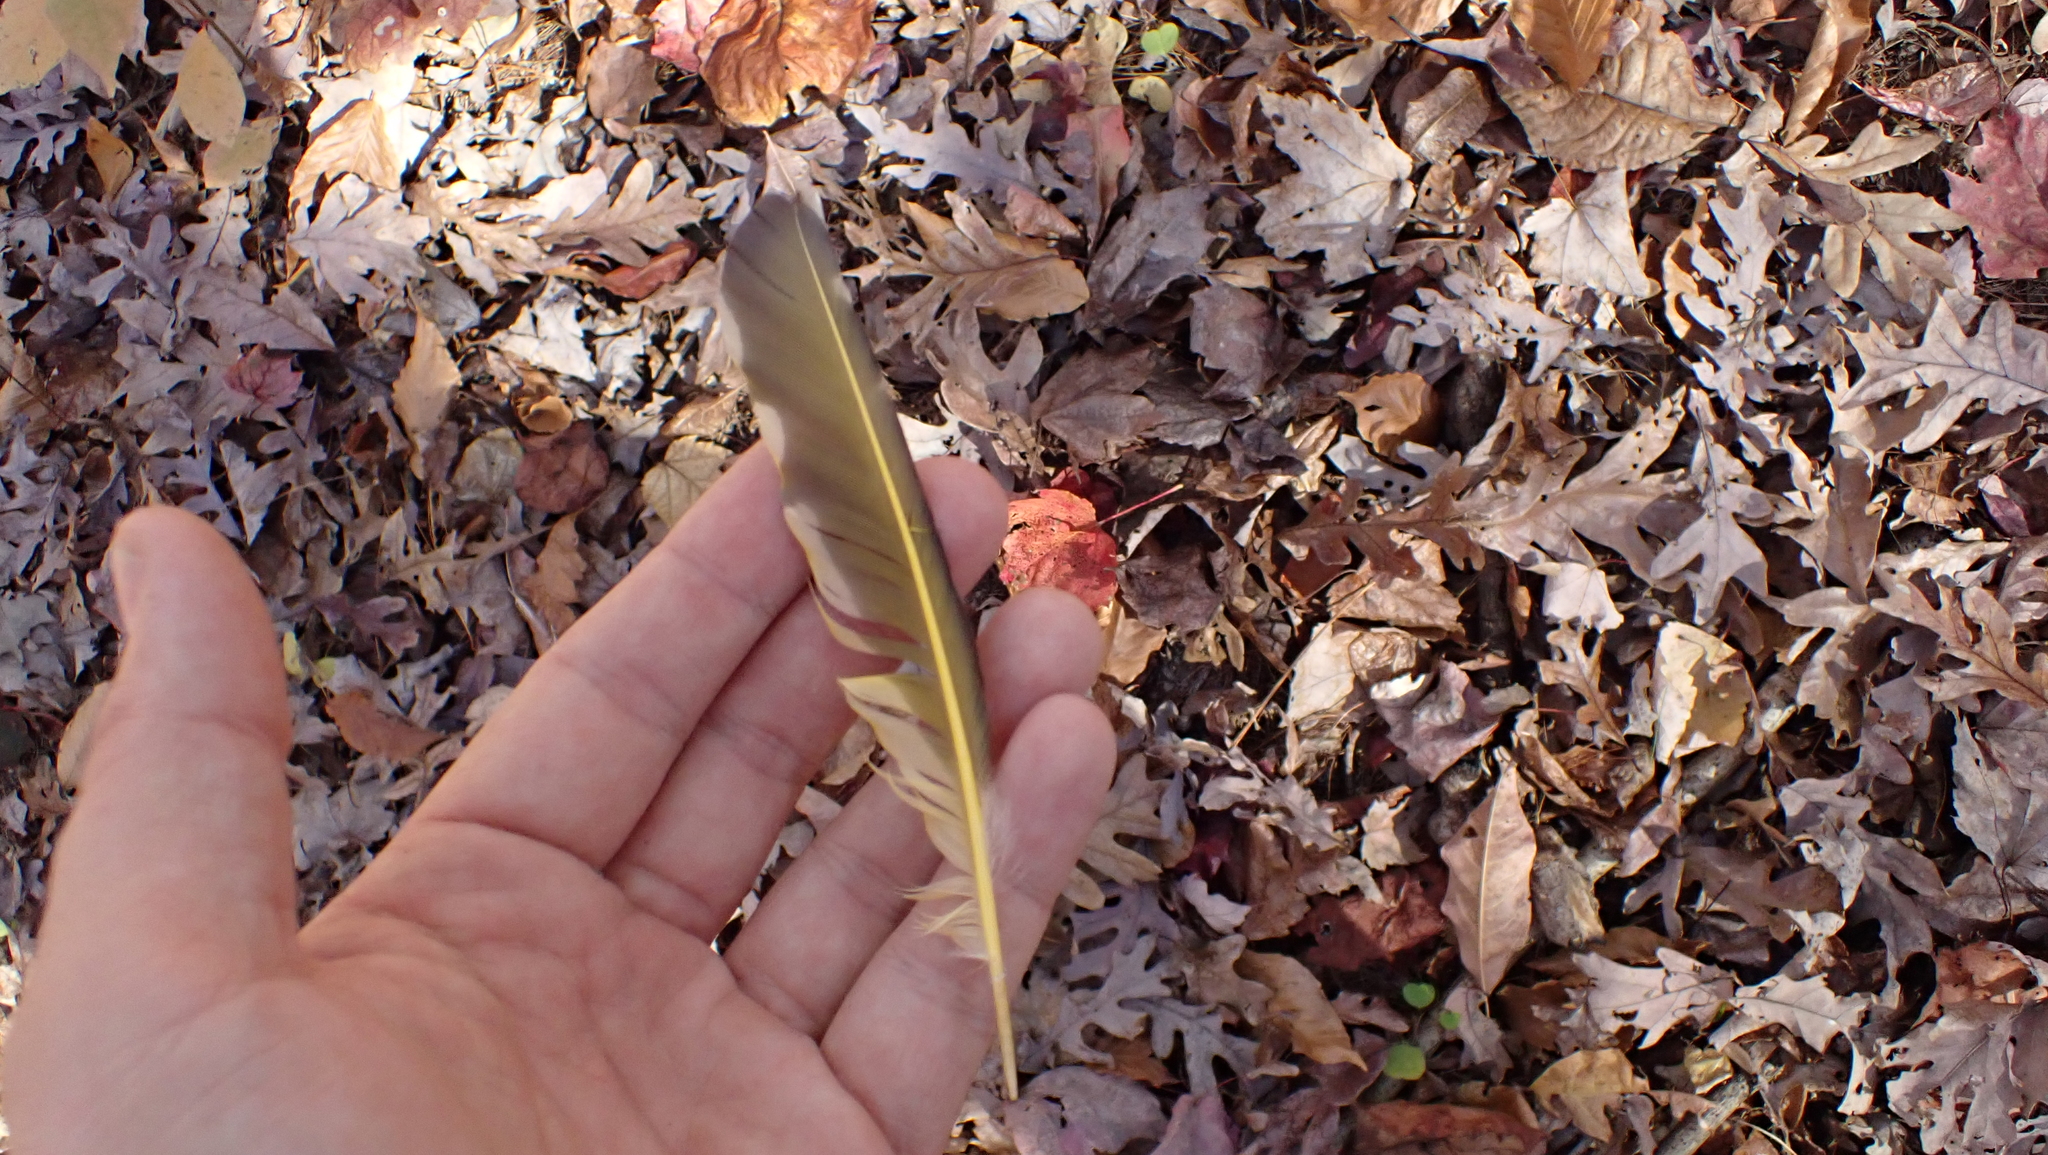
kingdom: Animalia
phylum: Chordata
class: Aves
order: Piciformes
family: Picidae
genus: Colaptes
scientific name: Colaptes auratus
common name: Northern flicker
